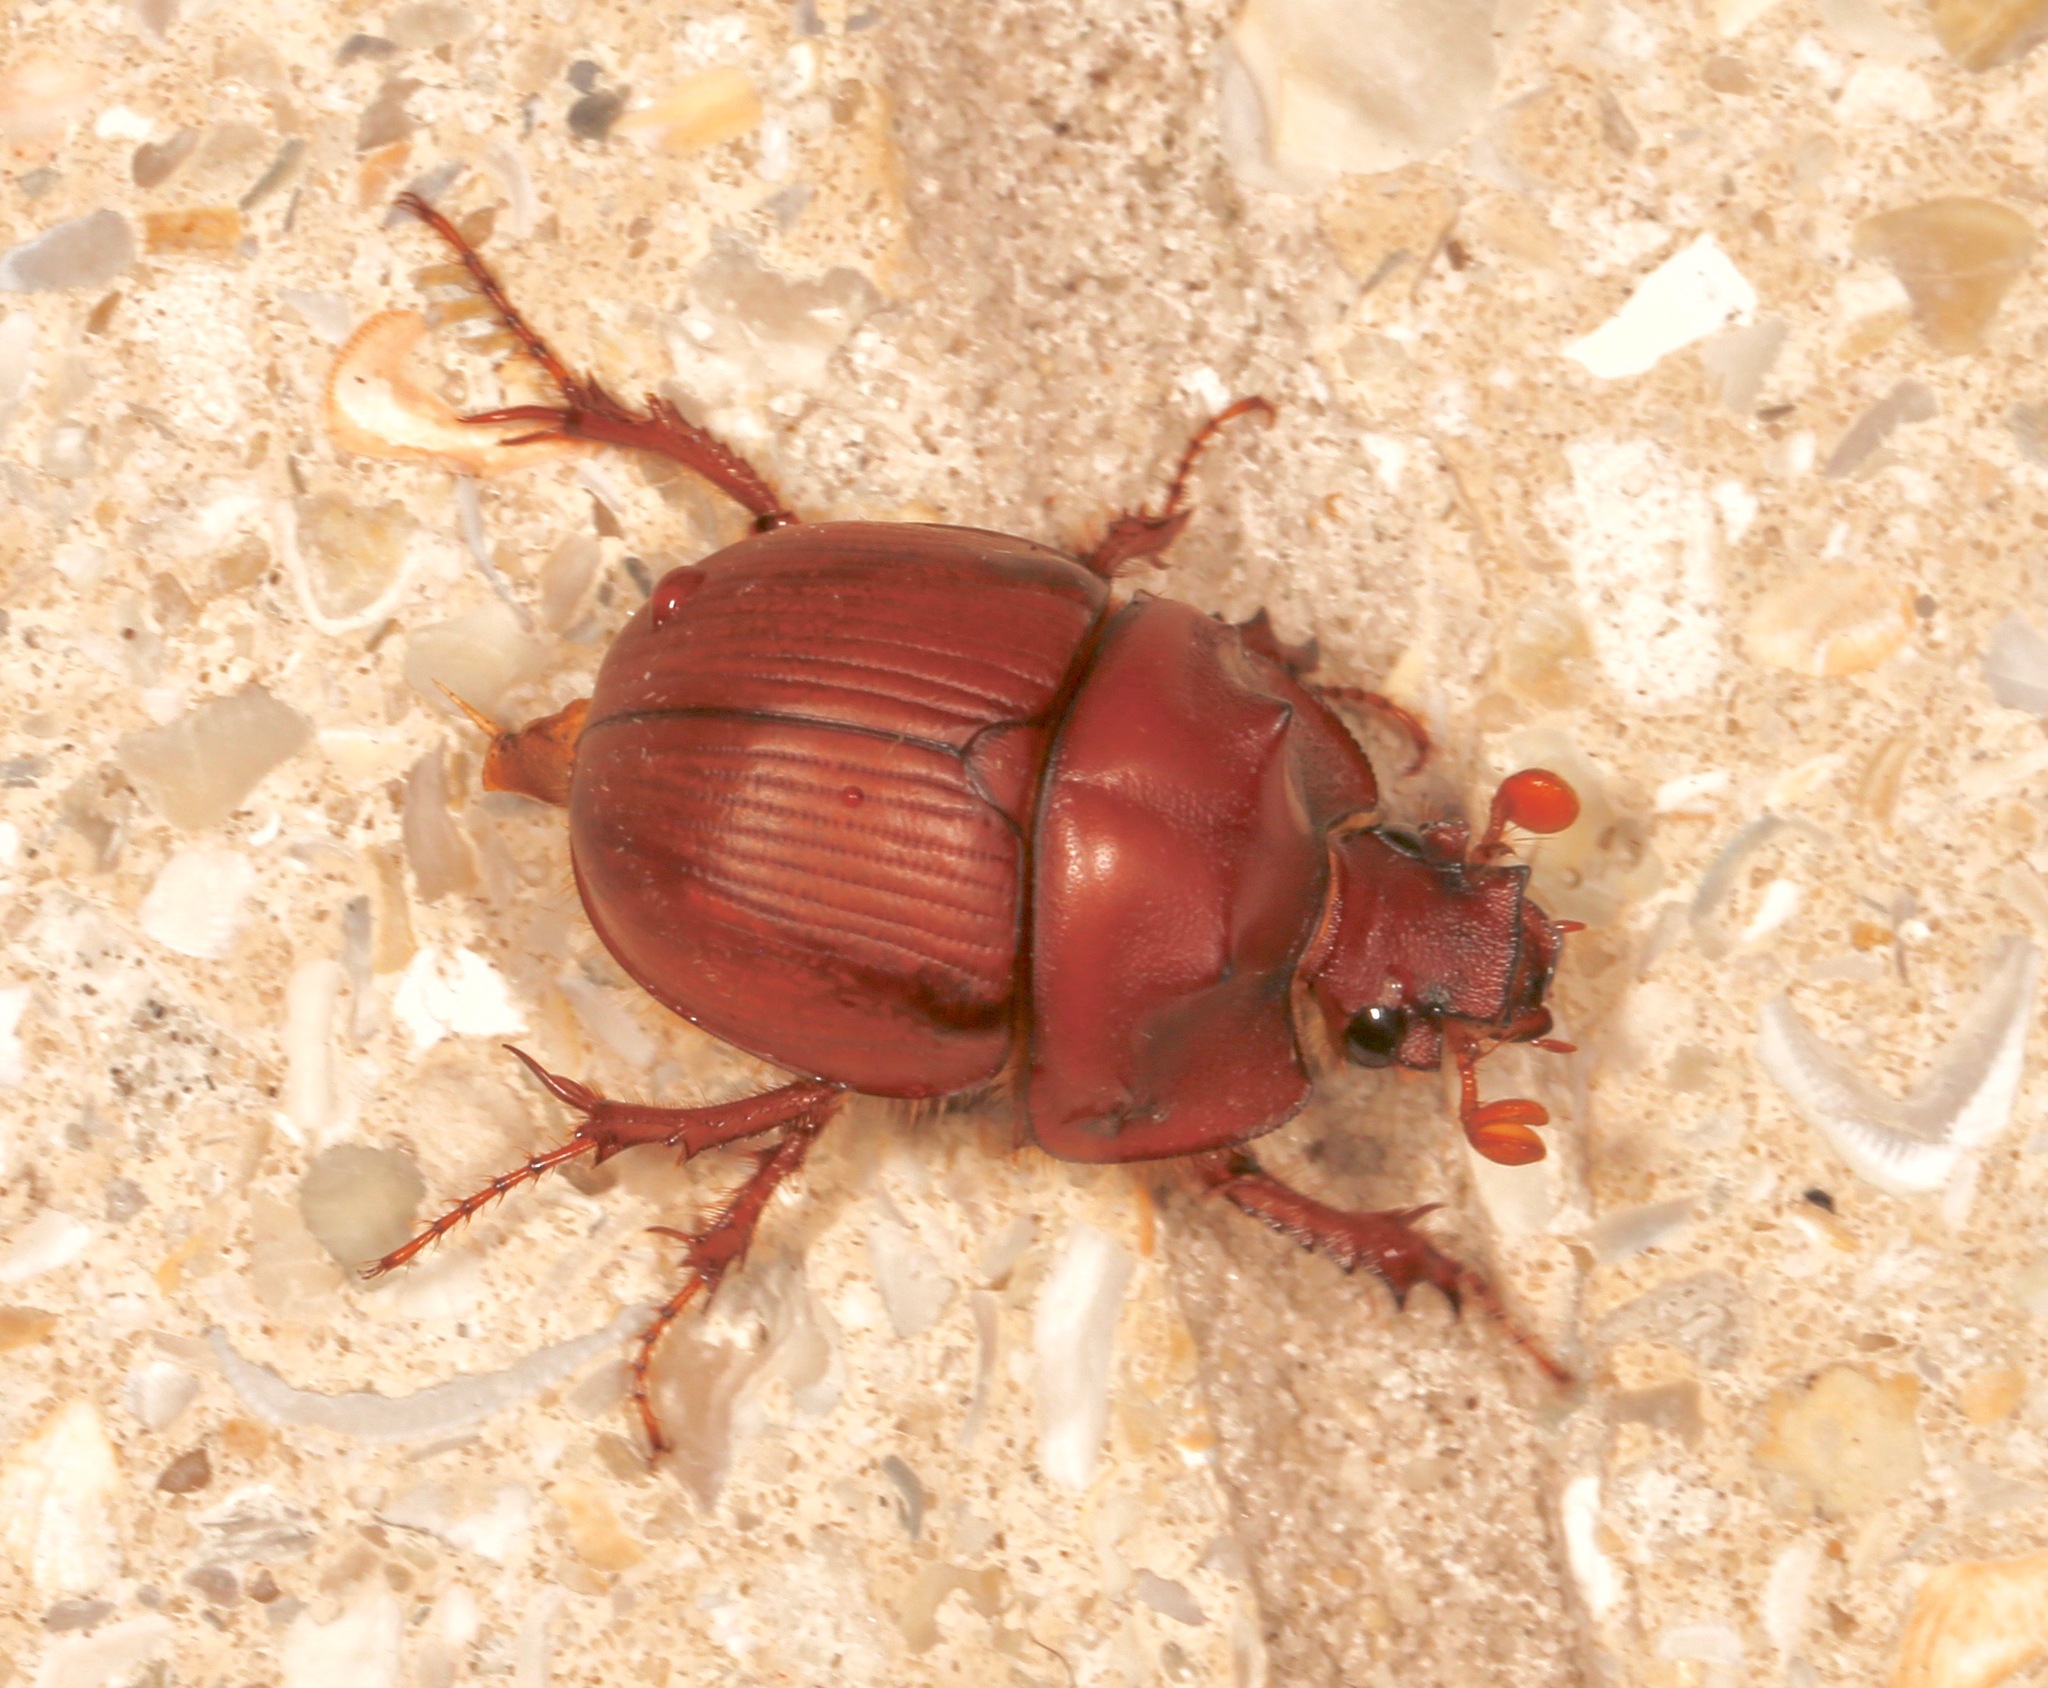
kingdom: Animalia
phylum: Arthropoda
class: Insecta
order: Coleoptera
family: Geotrupidae
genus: Bradycinetulus
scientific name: Bradycinetulus ferrugineus
